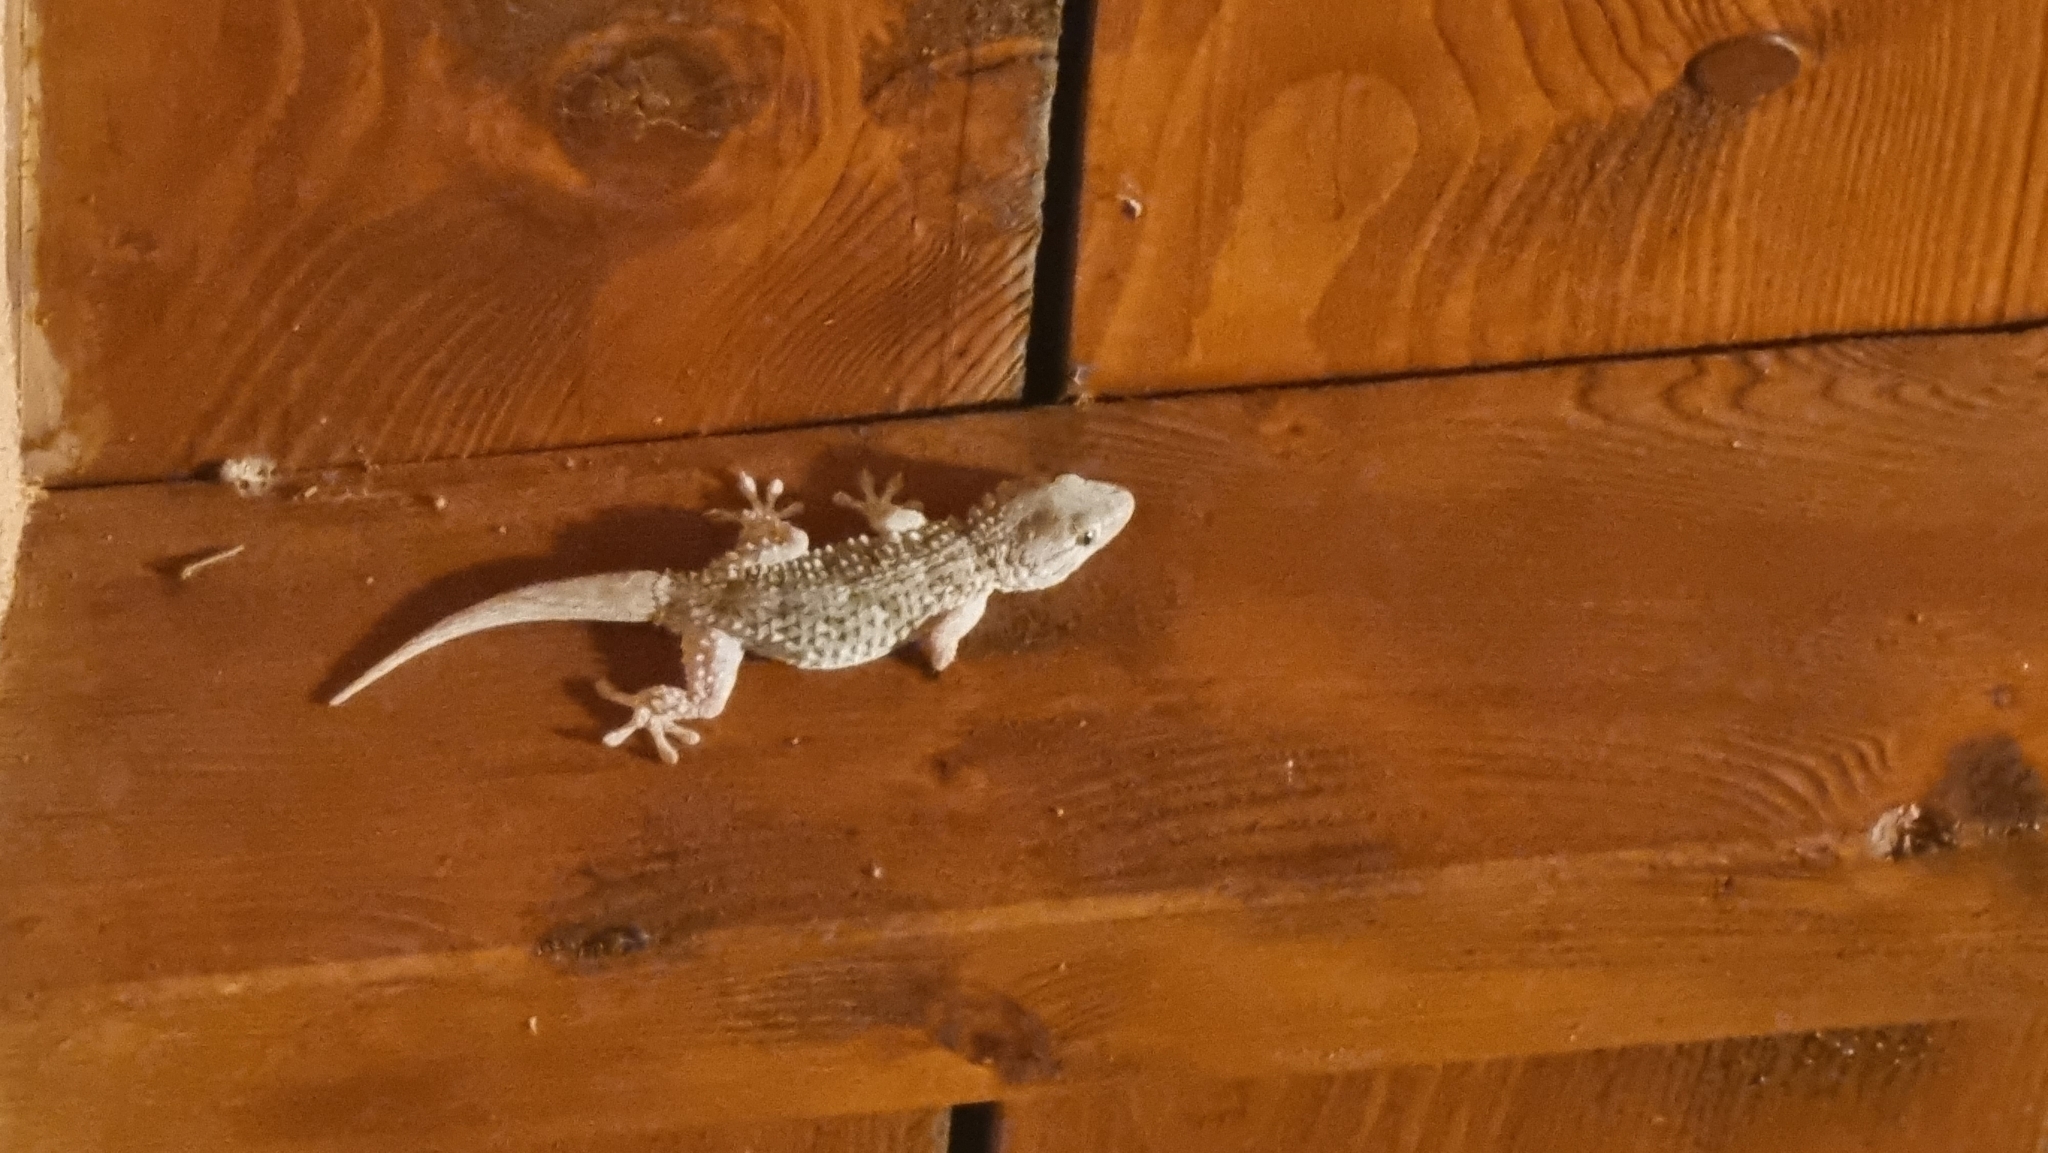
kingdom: Animalia
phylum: Chordata
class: Squamata
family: Phyllodactylidae
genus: Tarentola
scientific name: Tarentola mauritanica
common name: Moorish gecko
